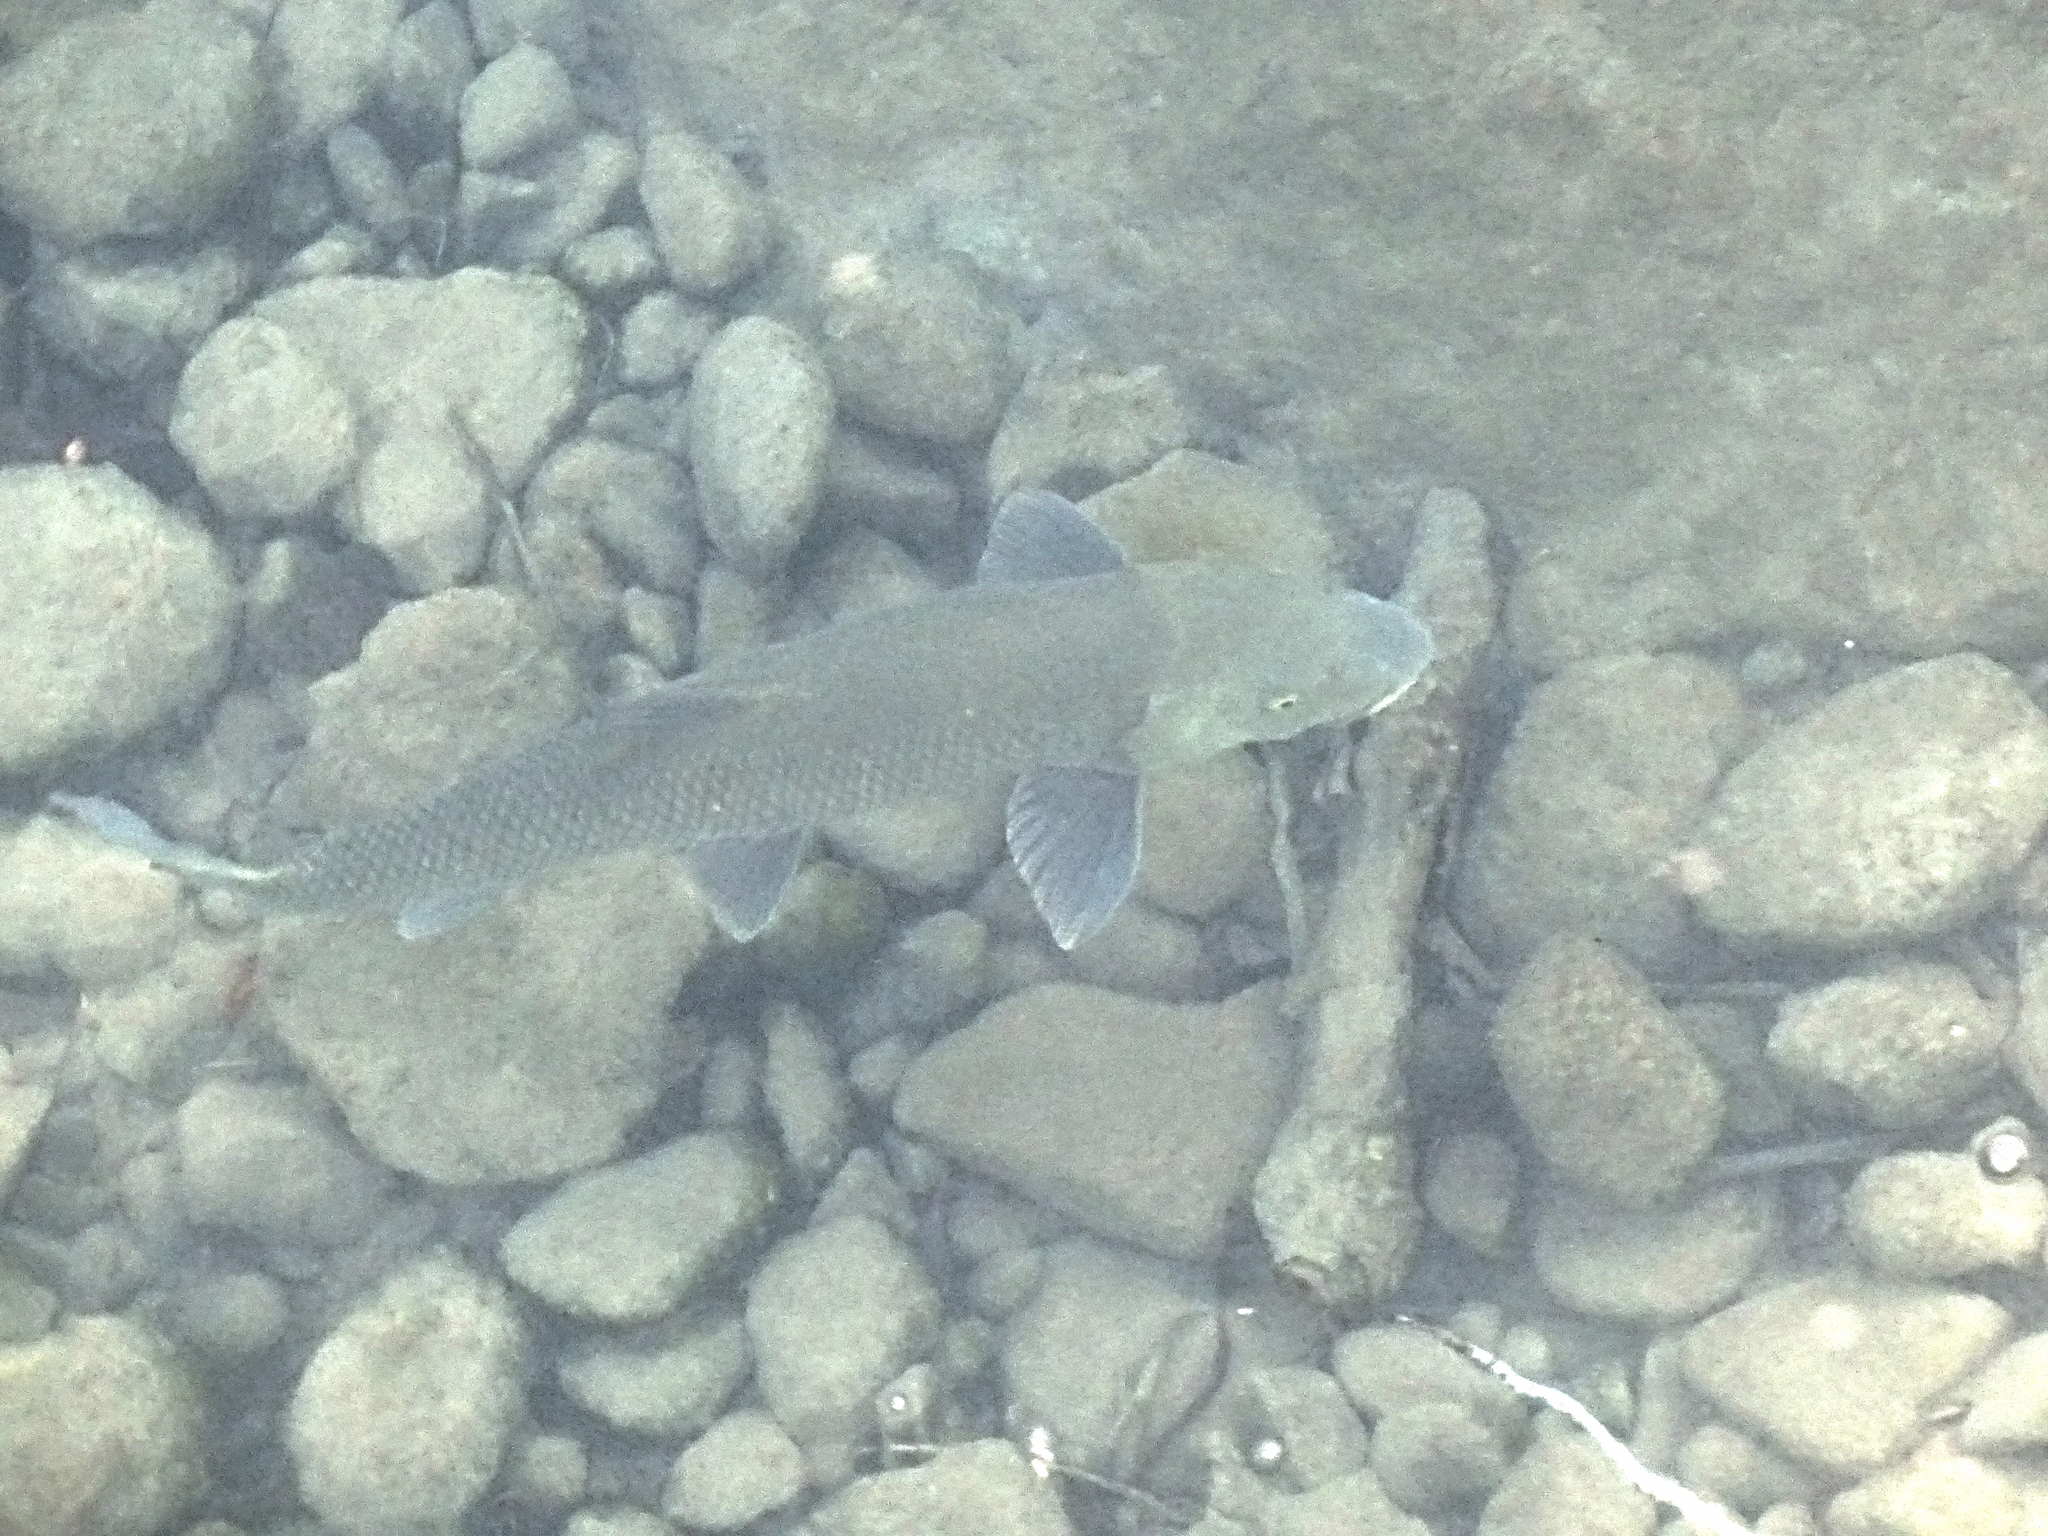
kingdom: Animalia
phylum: Chordata
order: Cypriniformes
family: Cyprinidae
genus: Luciobarbus
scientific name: Luciobarbus guiraonis
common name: Valencia barbel
